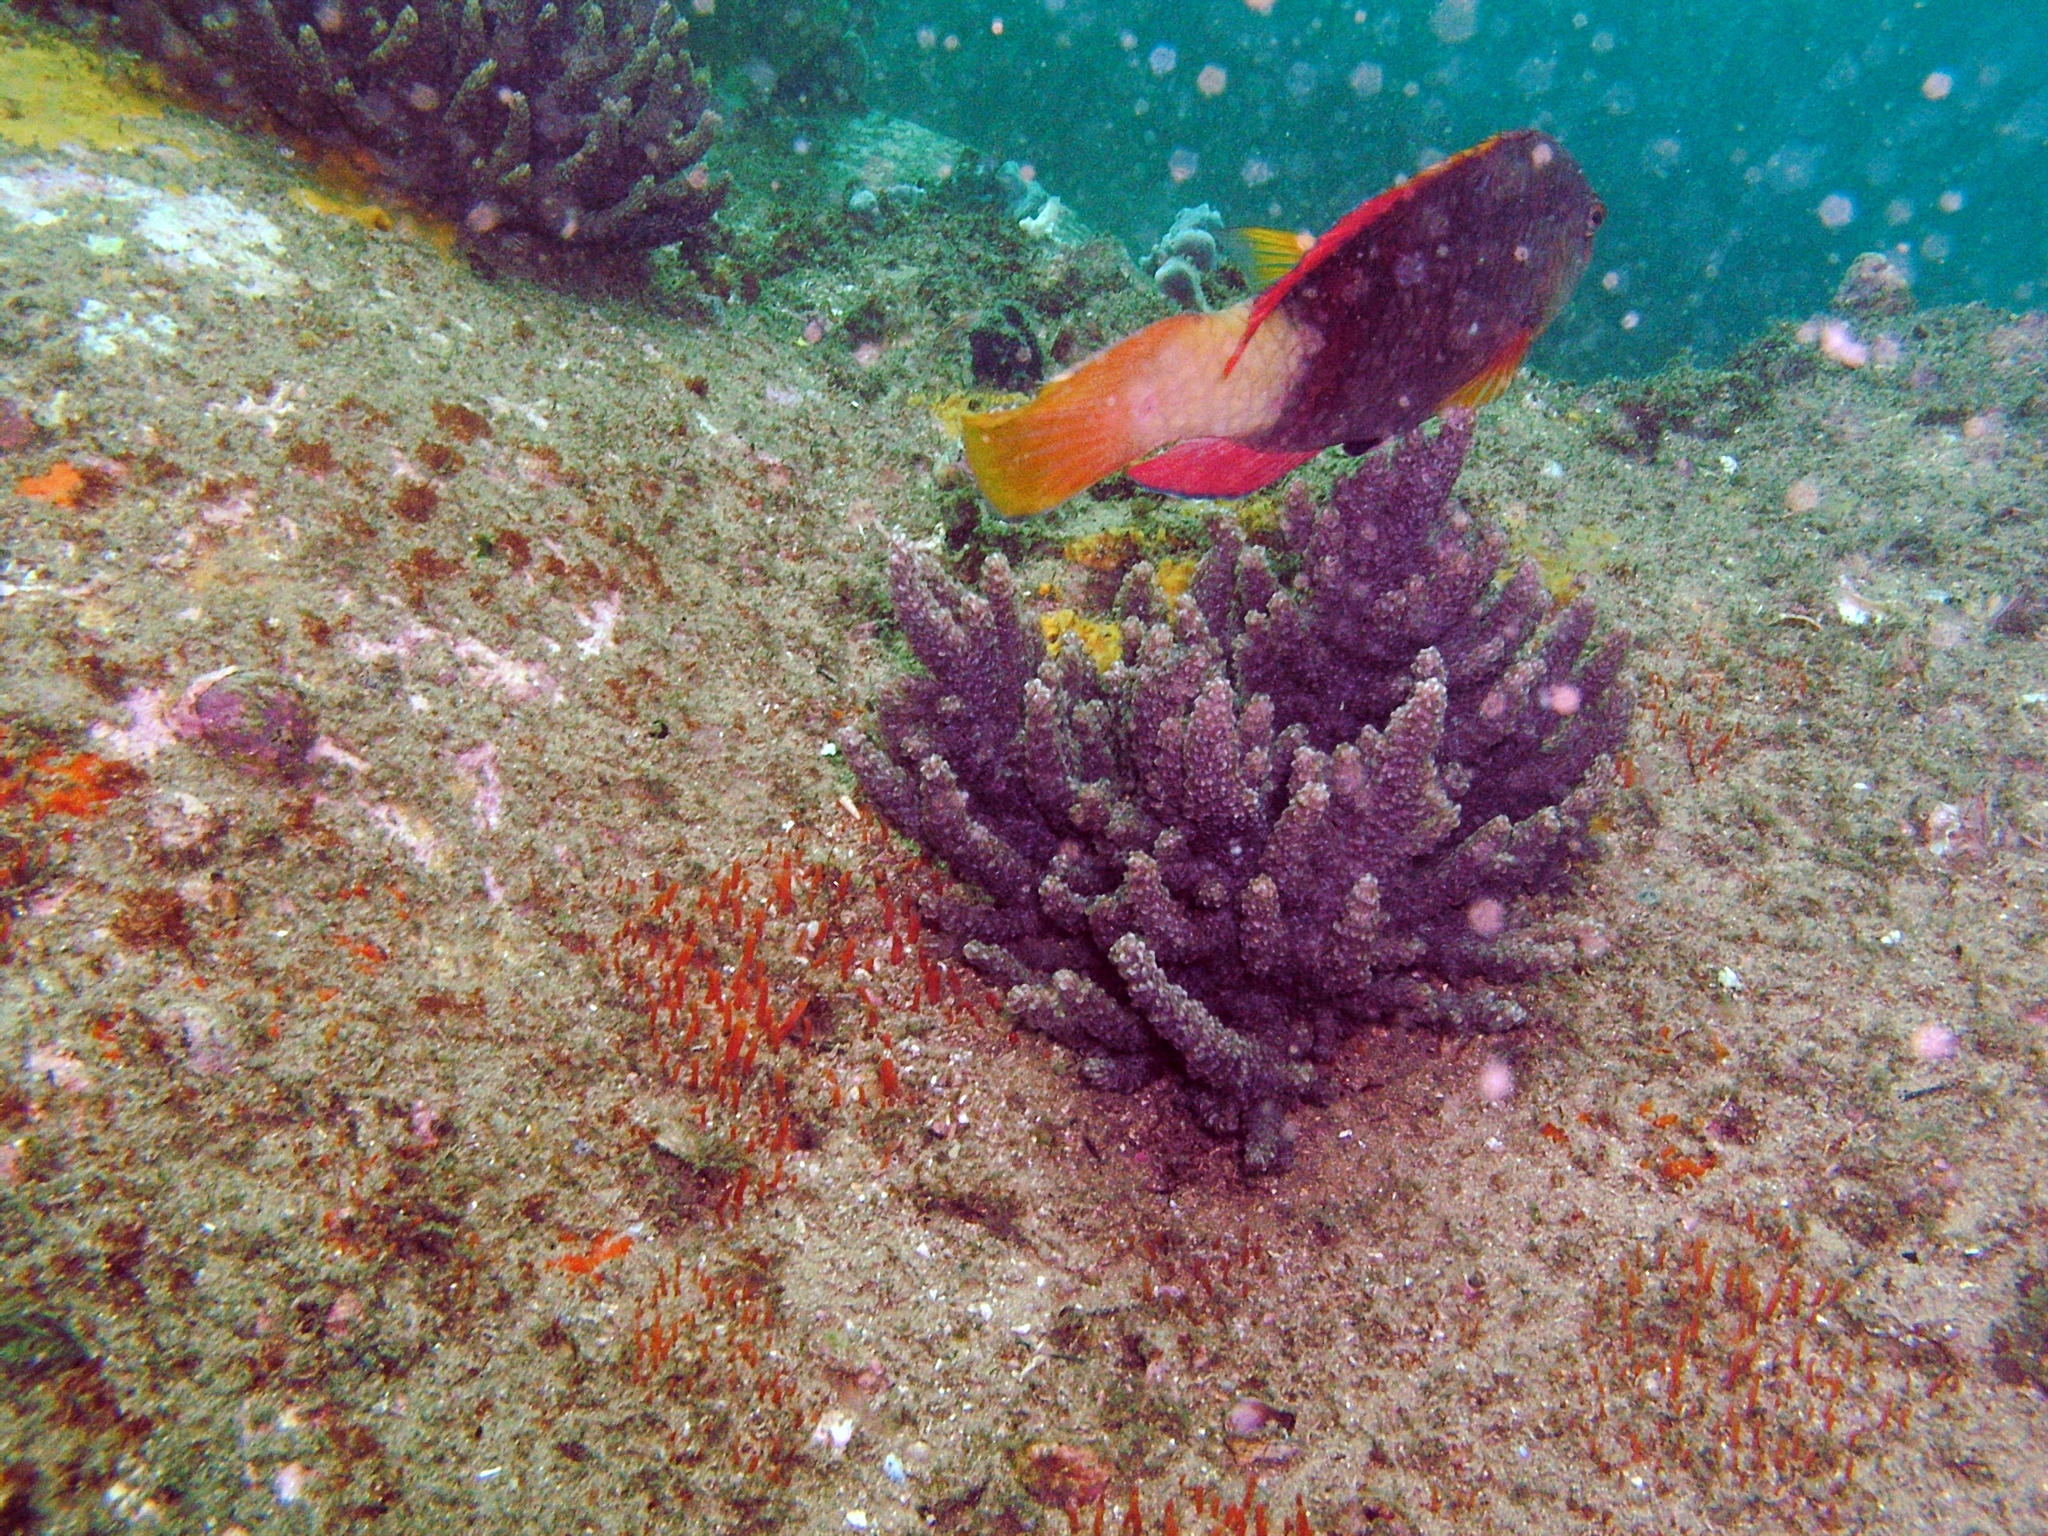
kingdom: Animalia
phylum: Chordata
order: Perciformes
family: Labridae
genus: Notolabrus
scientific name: Notolabrus gymnogenis
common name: Crimson banded wrasse
